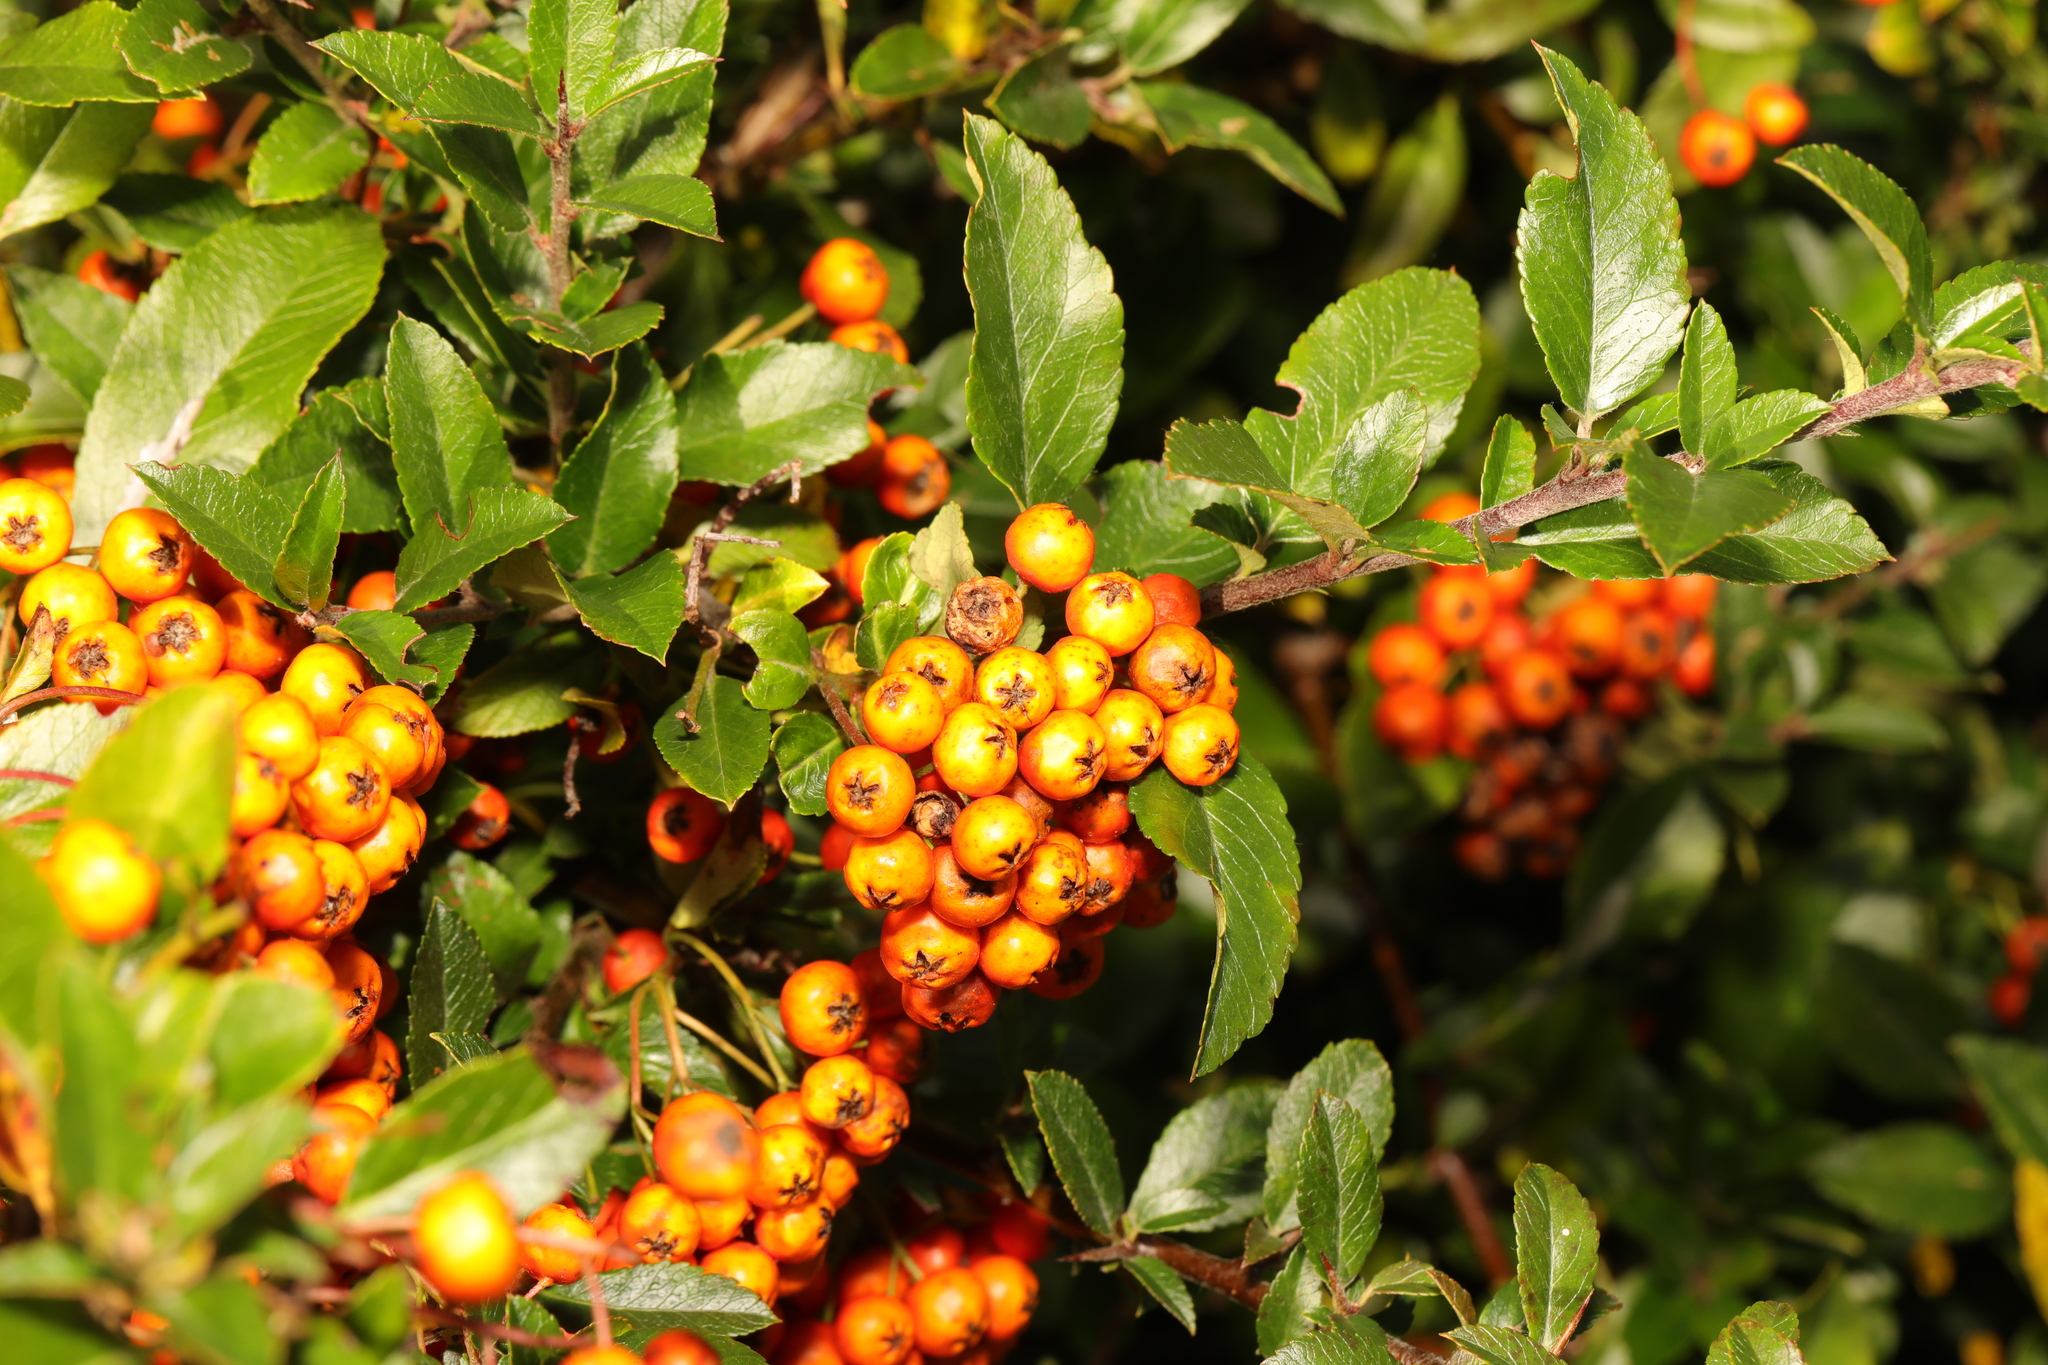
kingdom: Plantae
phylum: Tracheophyta
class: Magnoliopsida
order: Rosales
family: Rosaceae
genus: Pyracantha
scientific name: Pyracantha coccinea
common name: Firethorn
